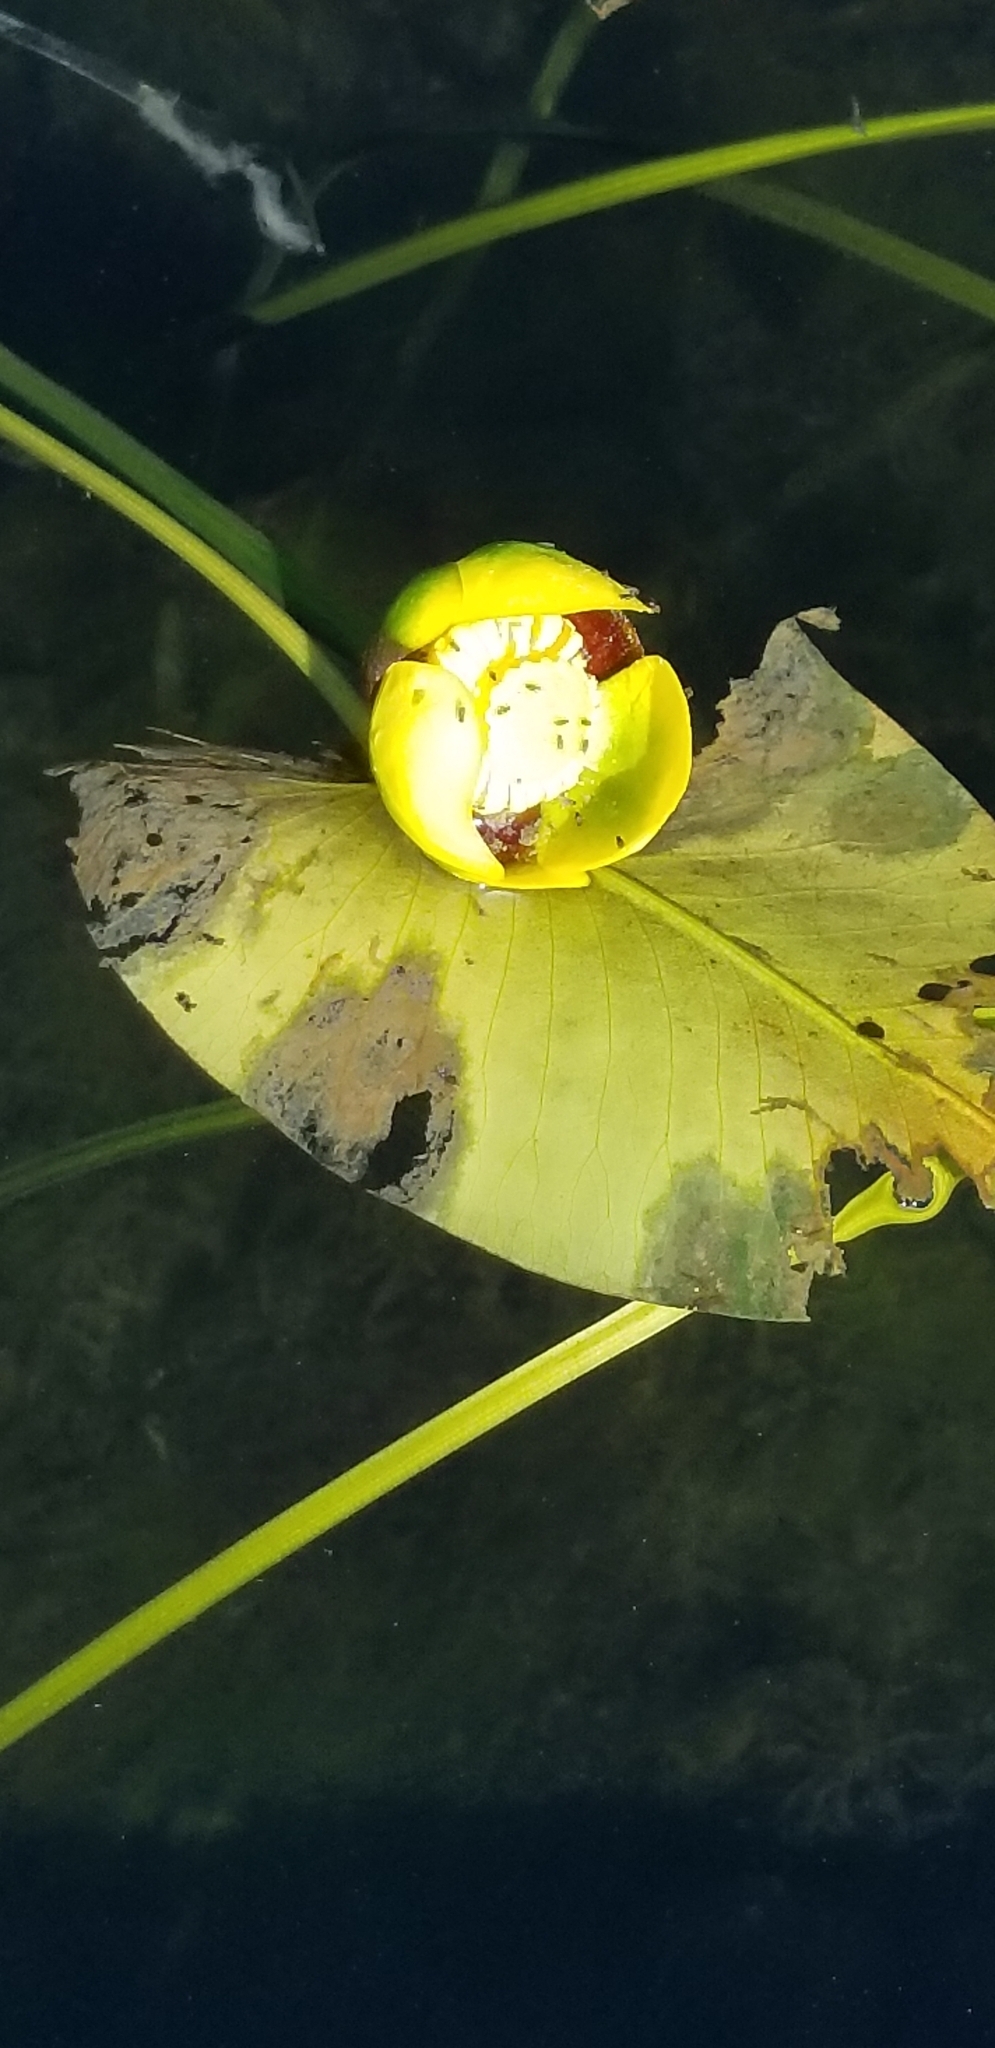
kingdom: Plantae
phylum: Tracheophyta
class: Magnoliopsida
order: Nymphaeales
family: Nymphaeaceae
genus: Nuphar
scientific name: Nuphar variegata
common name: Beaver-root
